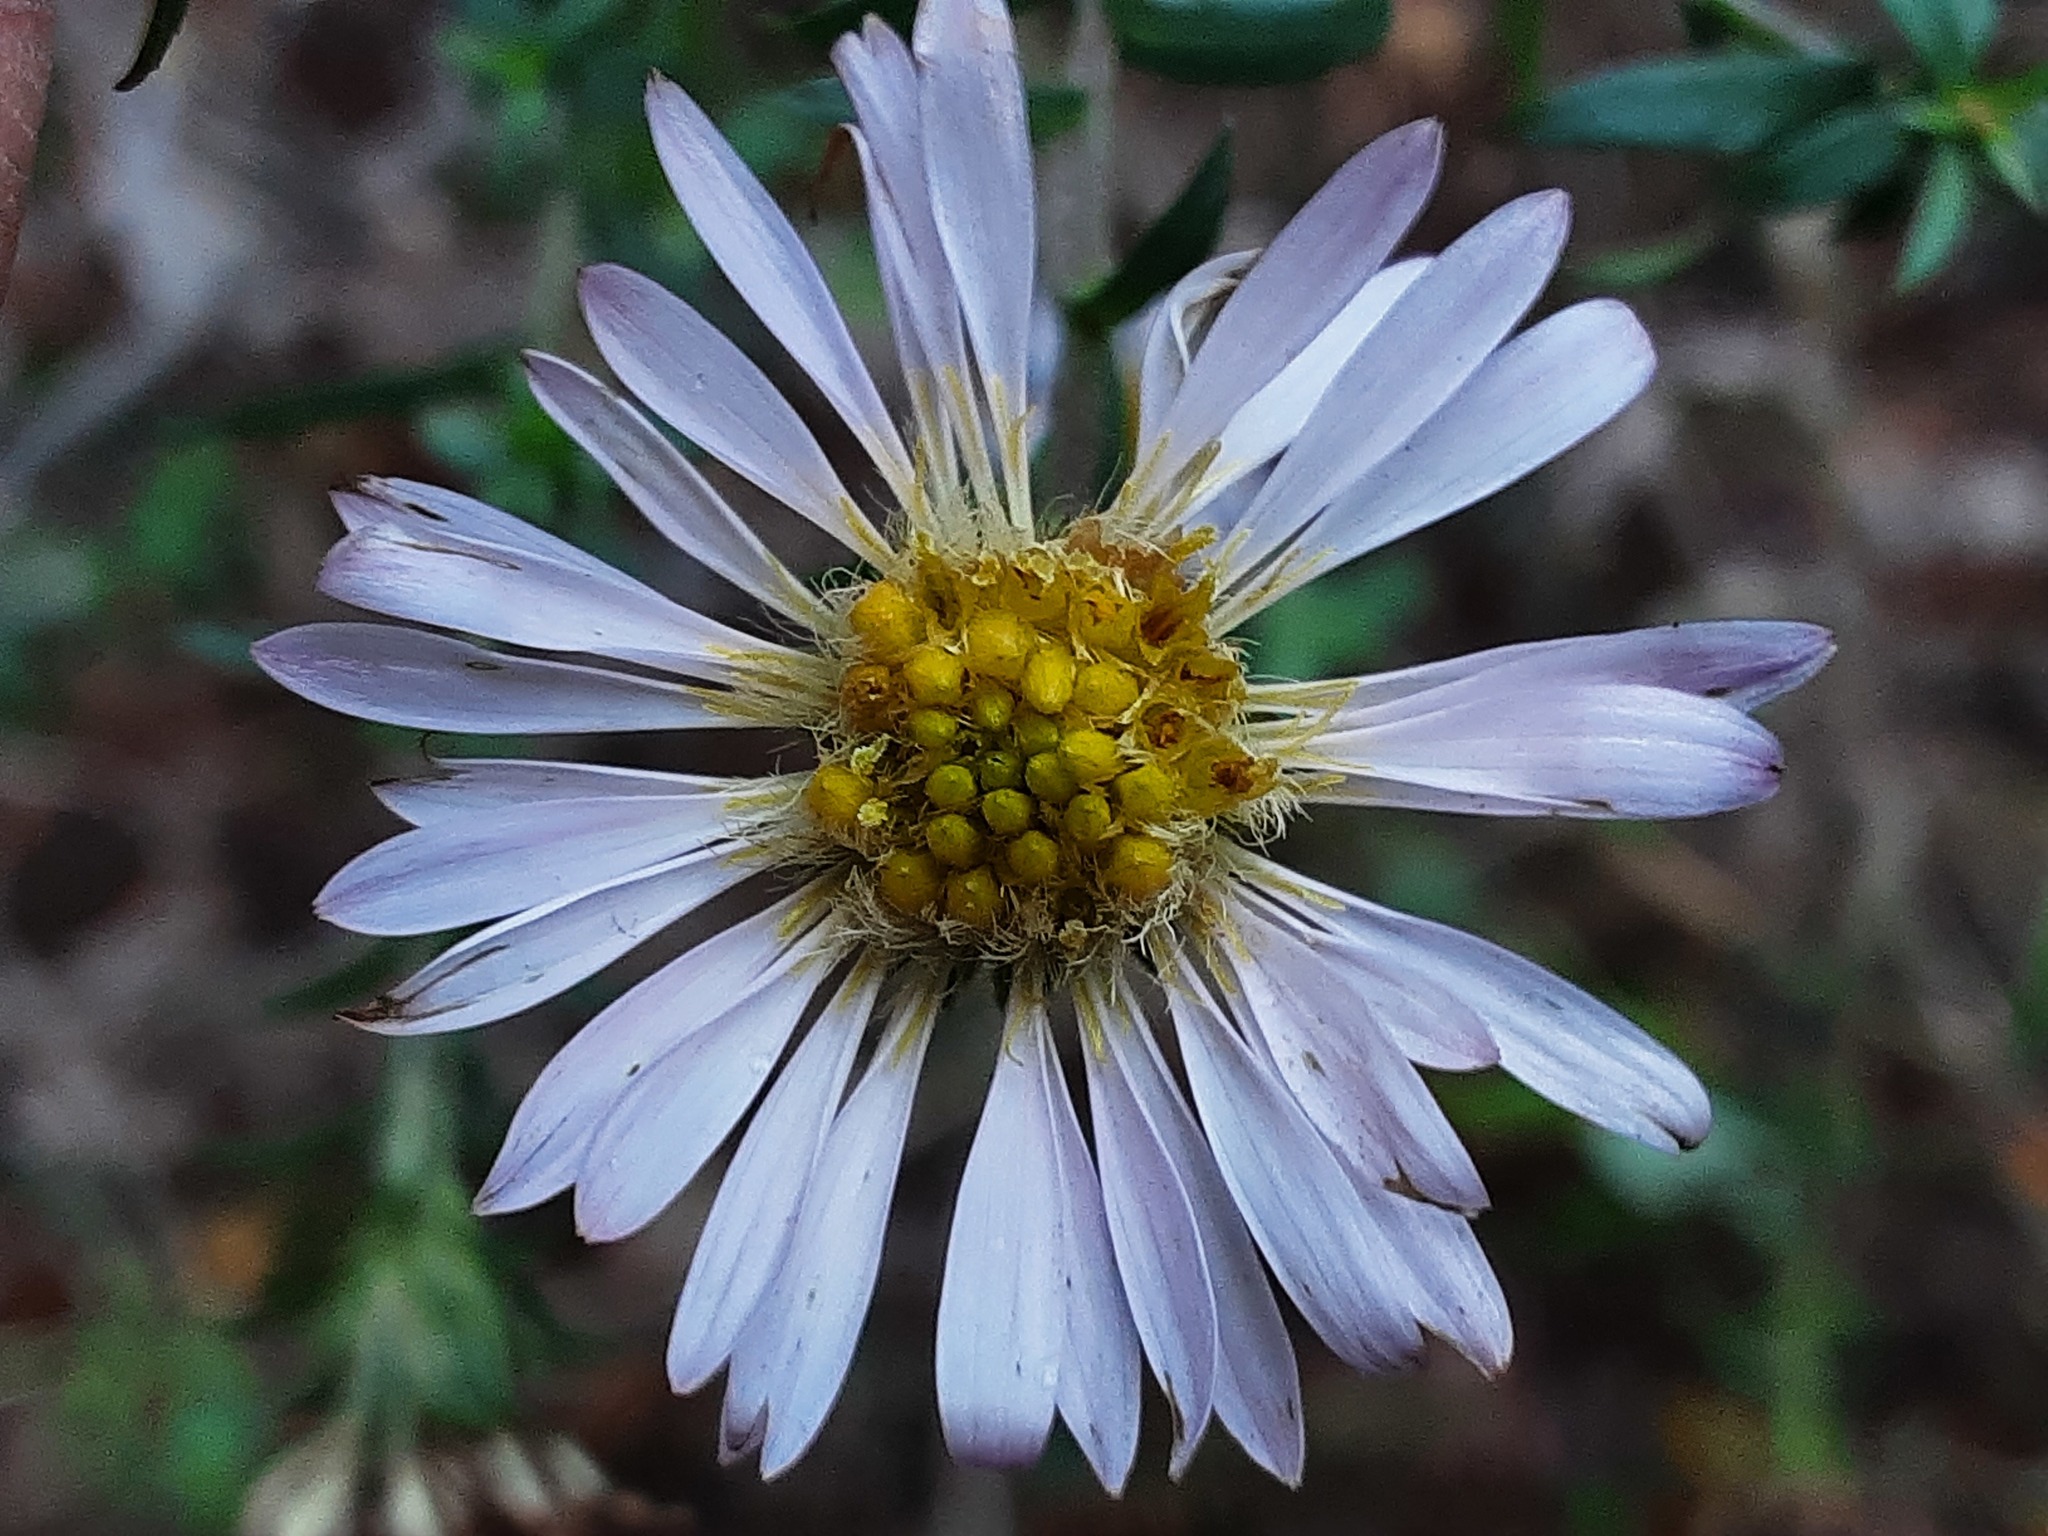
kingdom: Plantae
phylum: Tracheophyta
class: Magnoliopsida
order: Asterales
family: Asteraceae
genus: Symphyotrichum
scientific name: Symphyotrichum
